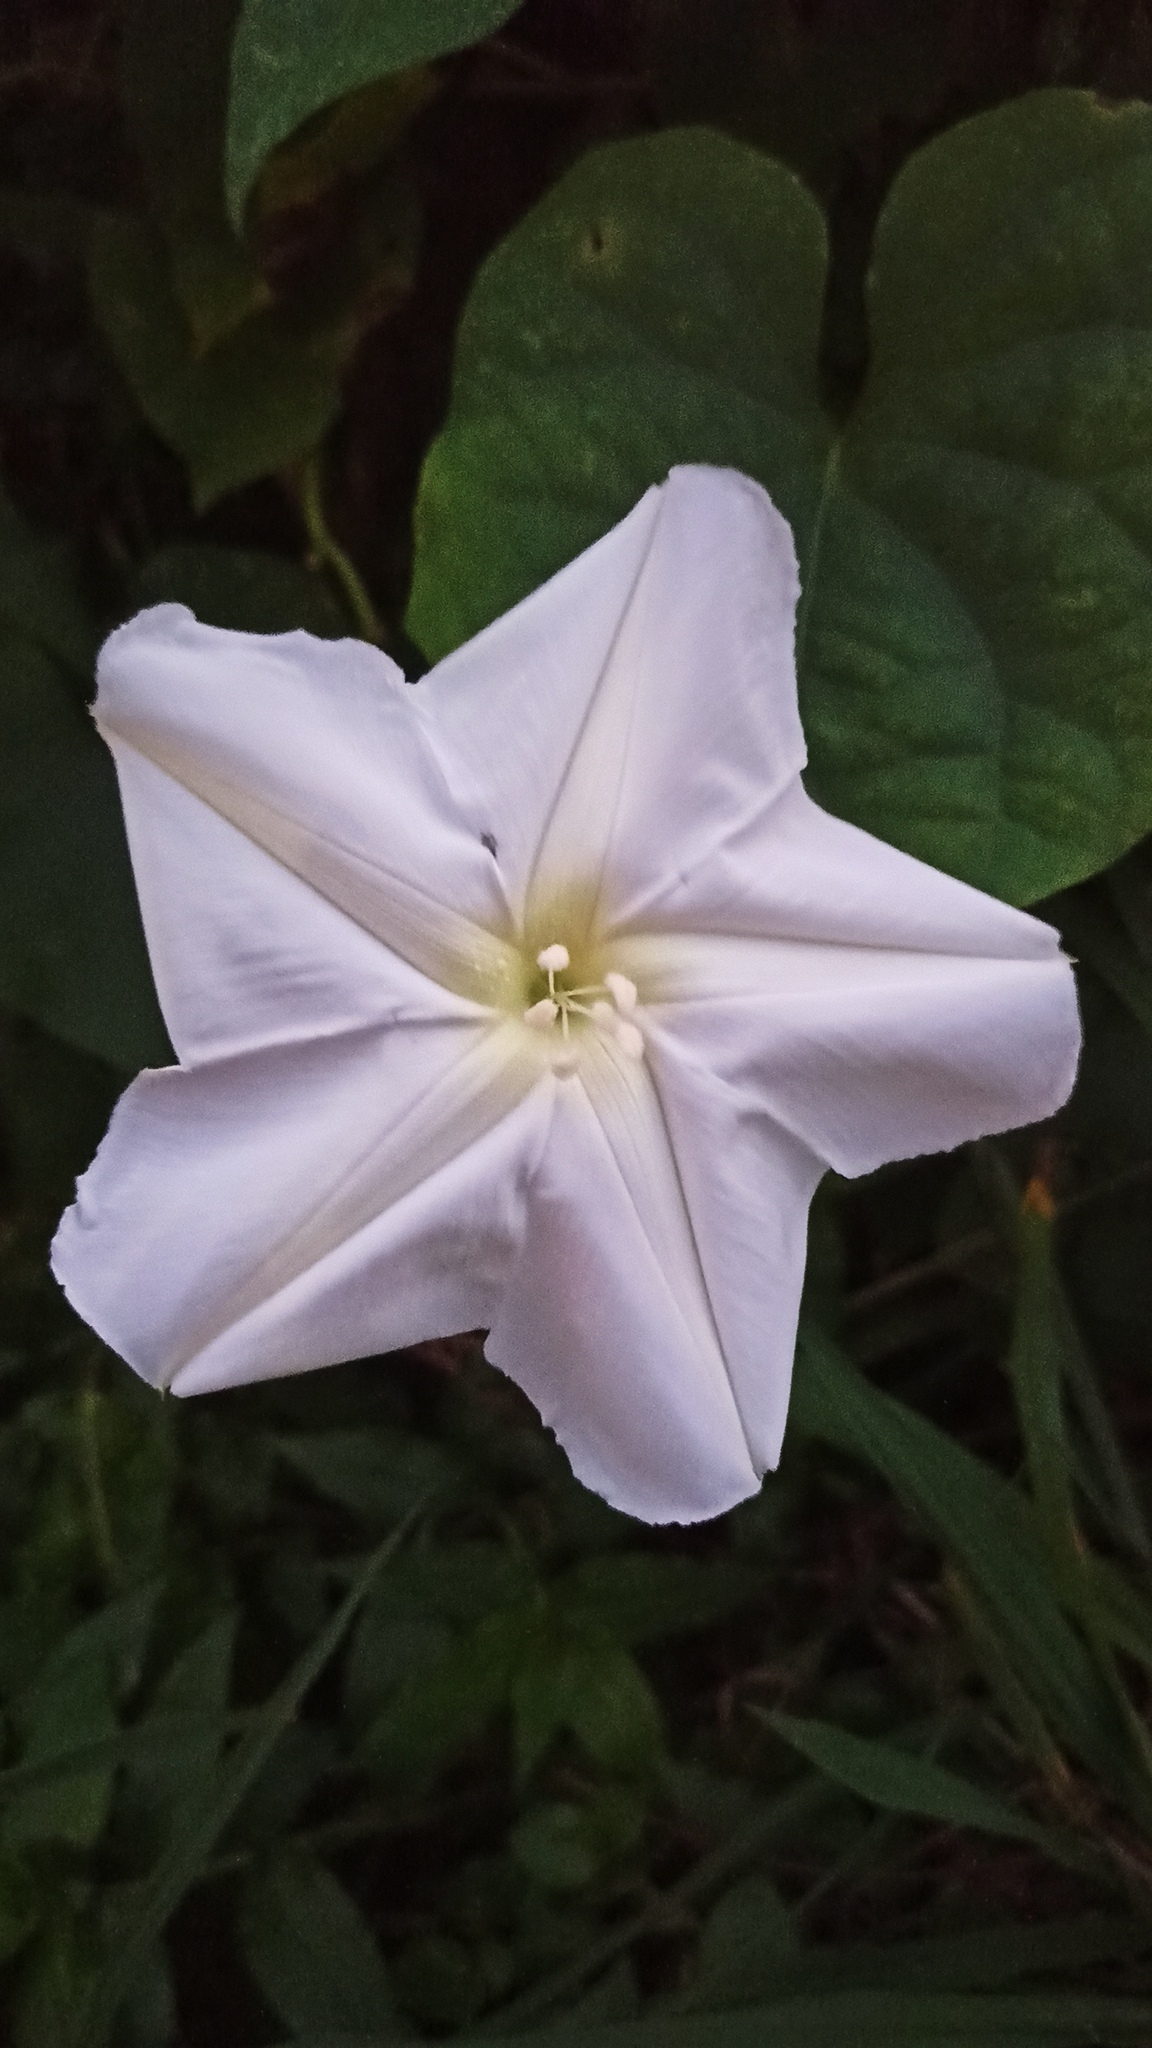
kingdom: Plantae
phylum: Tracheophyta
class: Magnoliopsida
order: Solanales
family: Convolvulaceae
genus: Ipomoea
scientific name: Ipomoea alba
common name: Moonflower
